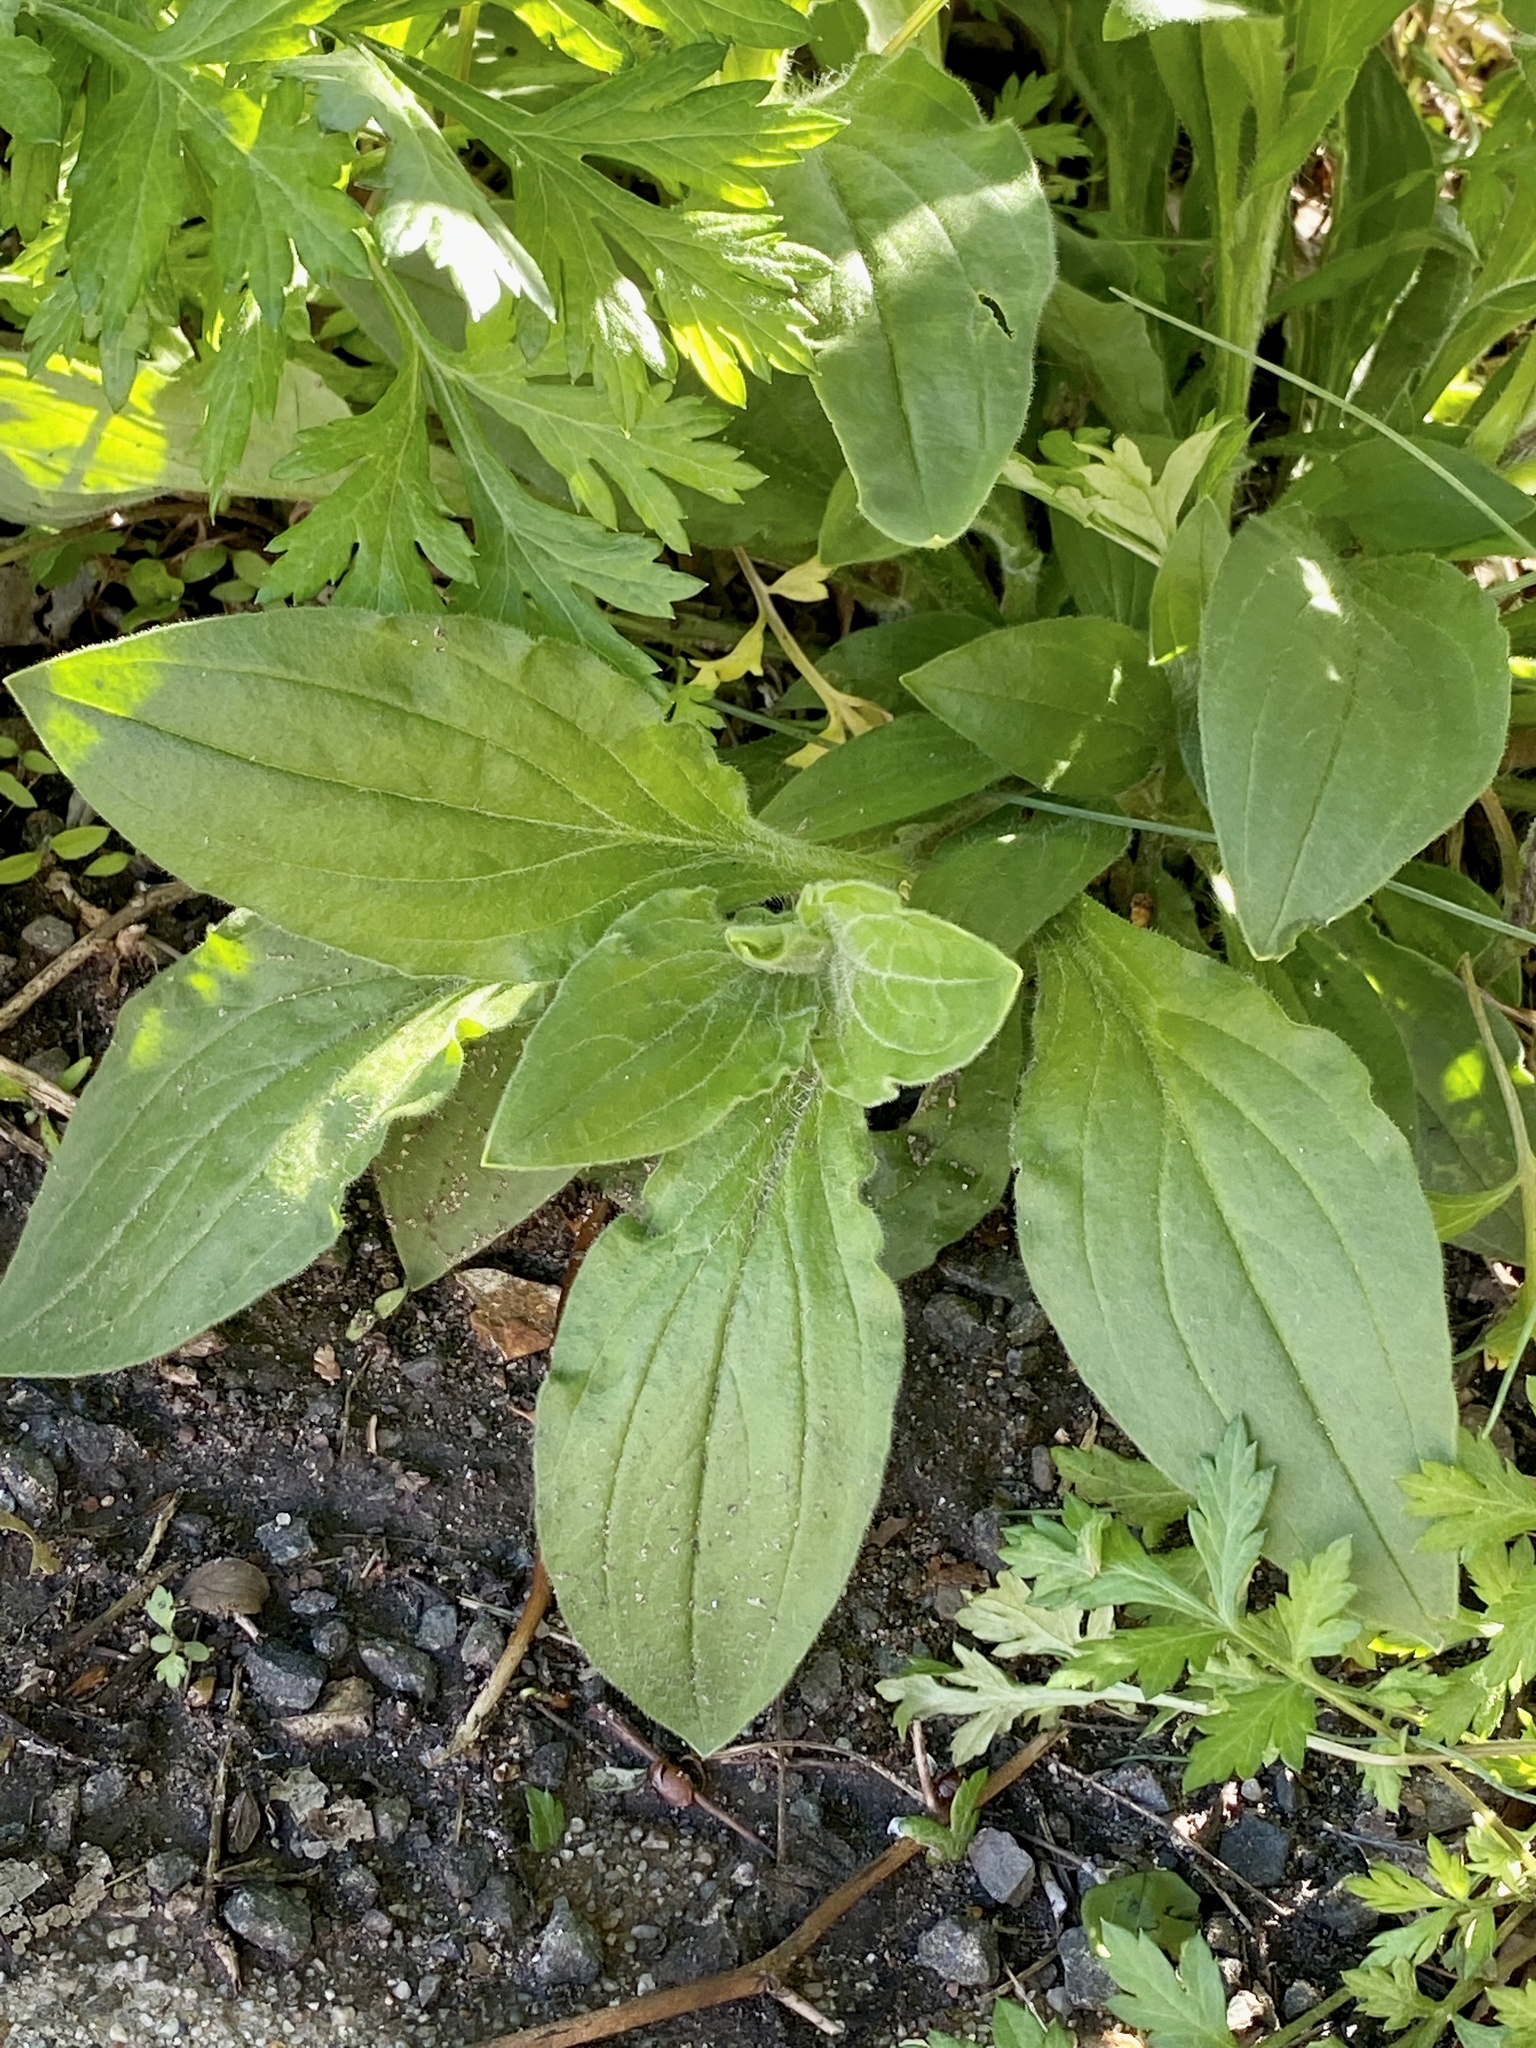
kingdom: Plantae
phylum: Tracheophyta
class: Magnoliopsida
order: Caryophyllales
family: Caryophyllaceae
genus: Silene
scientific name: Silene latifolia
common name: White campion
